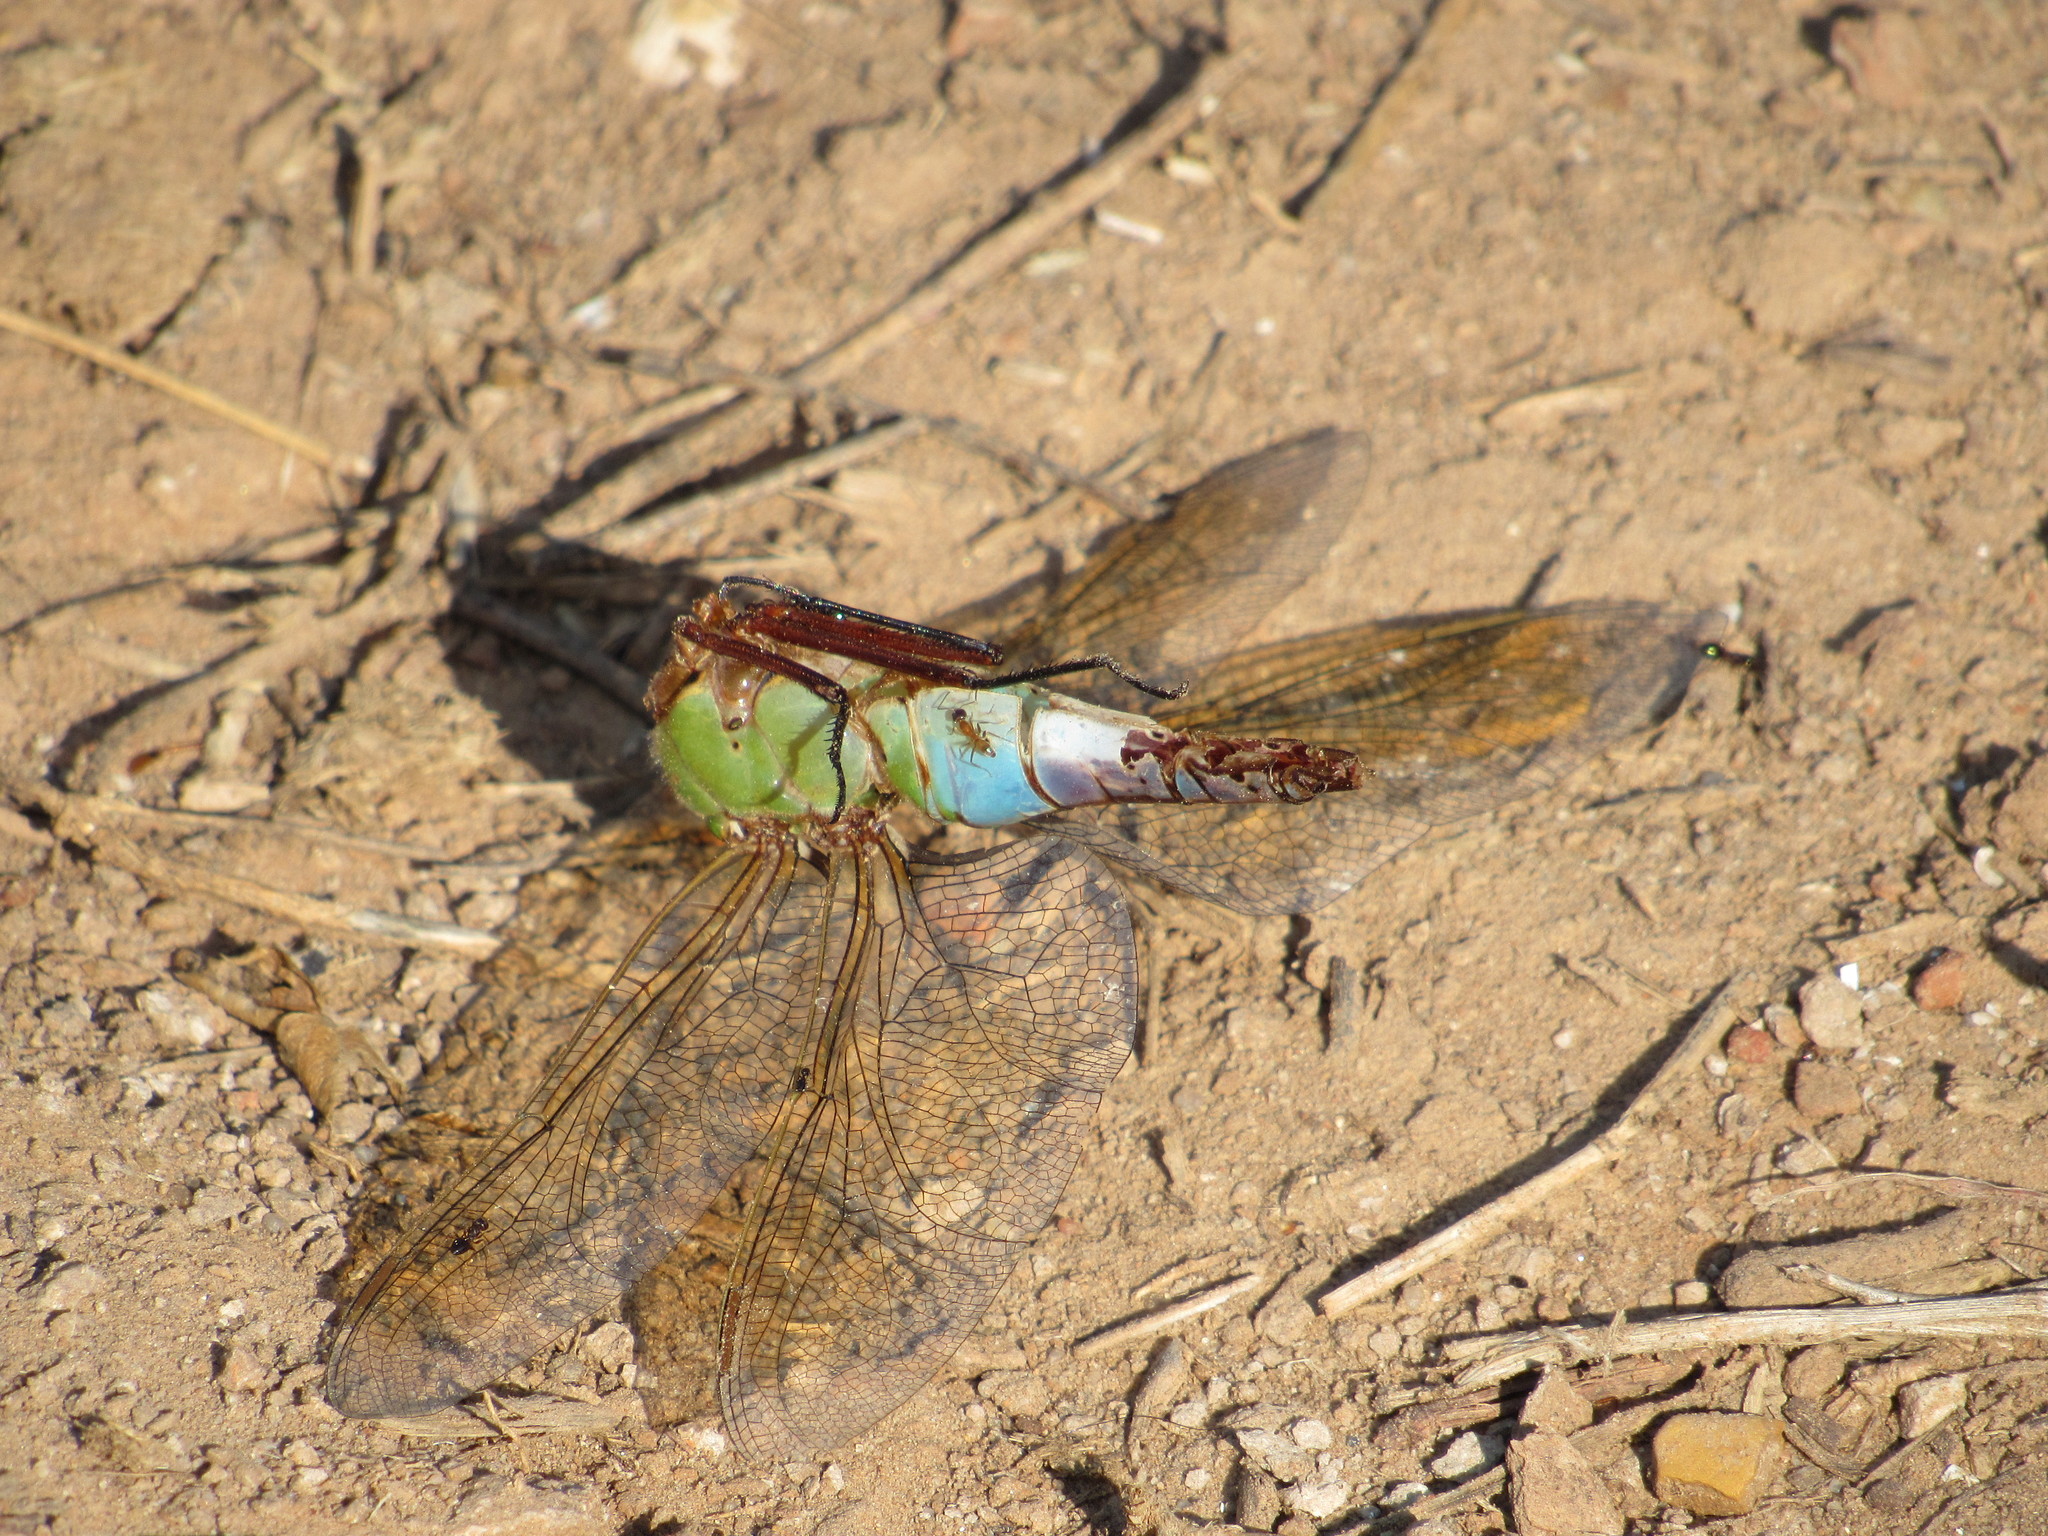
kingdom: Animalia
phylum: Arthropoda
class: Insecta
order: Odonata
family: Aeshnidae
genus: Anax
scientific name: Anax junius
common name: Common green darner
